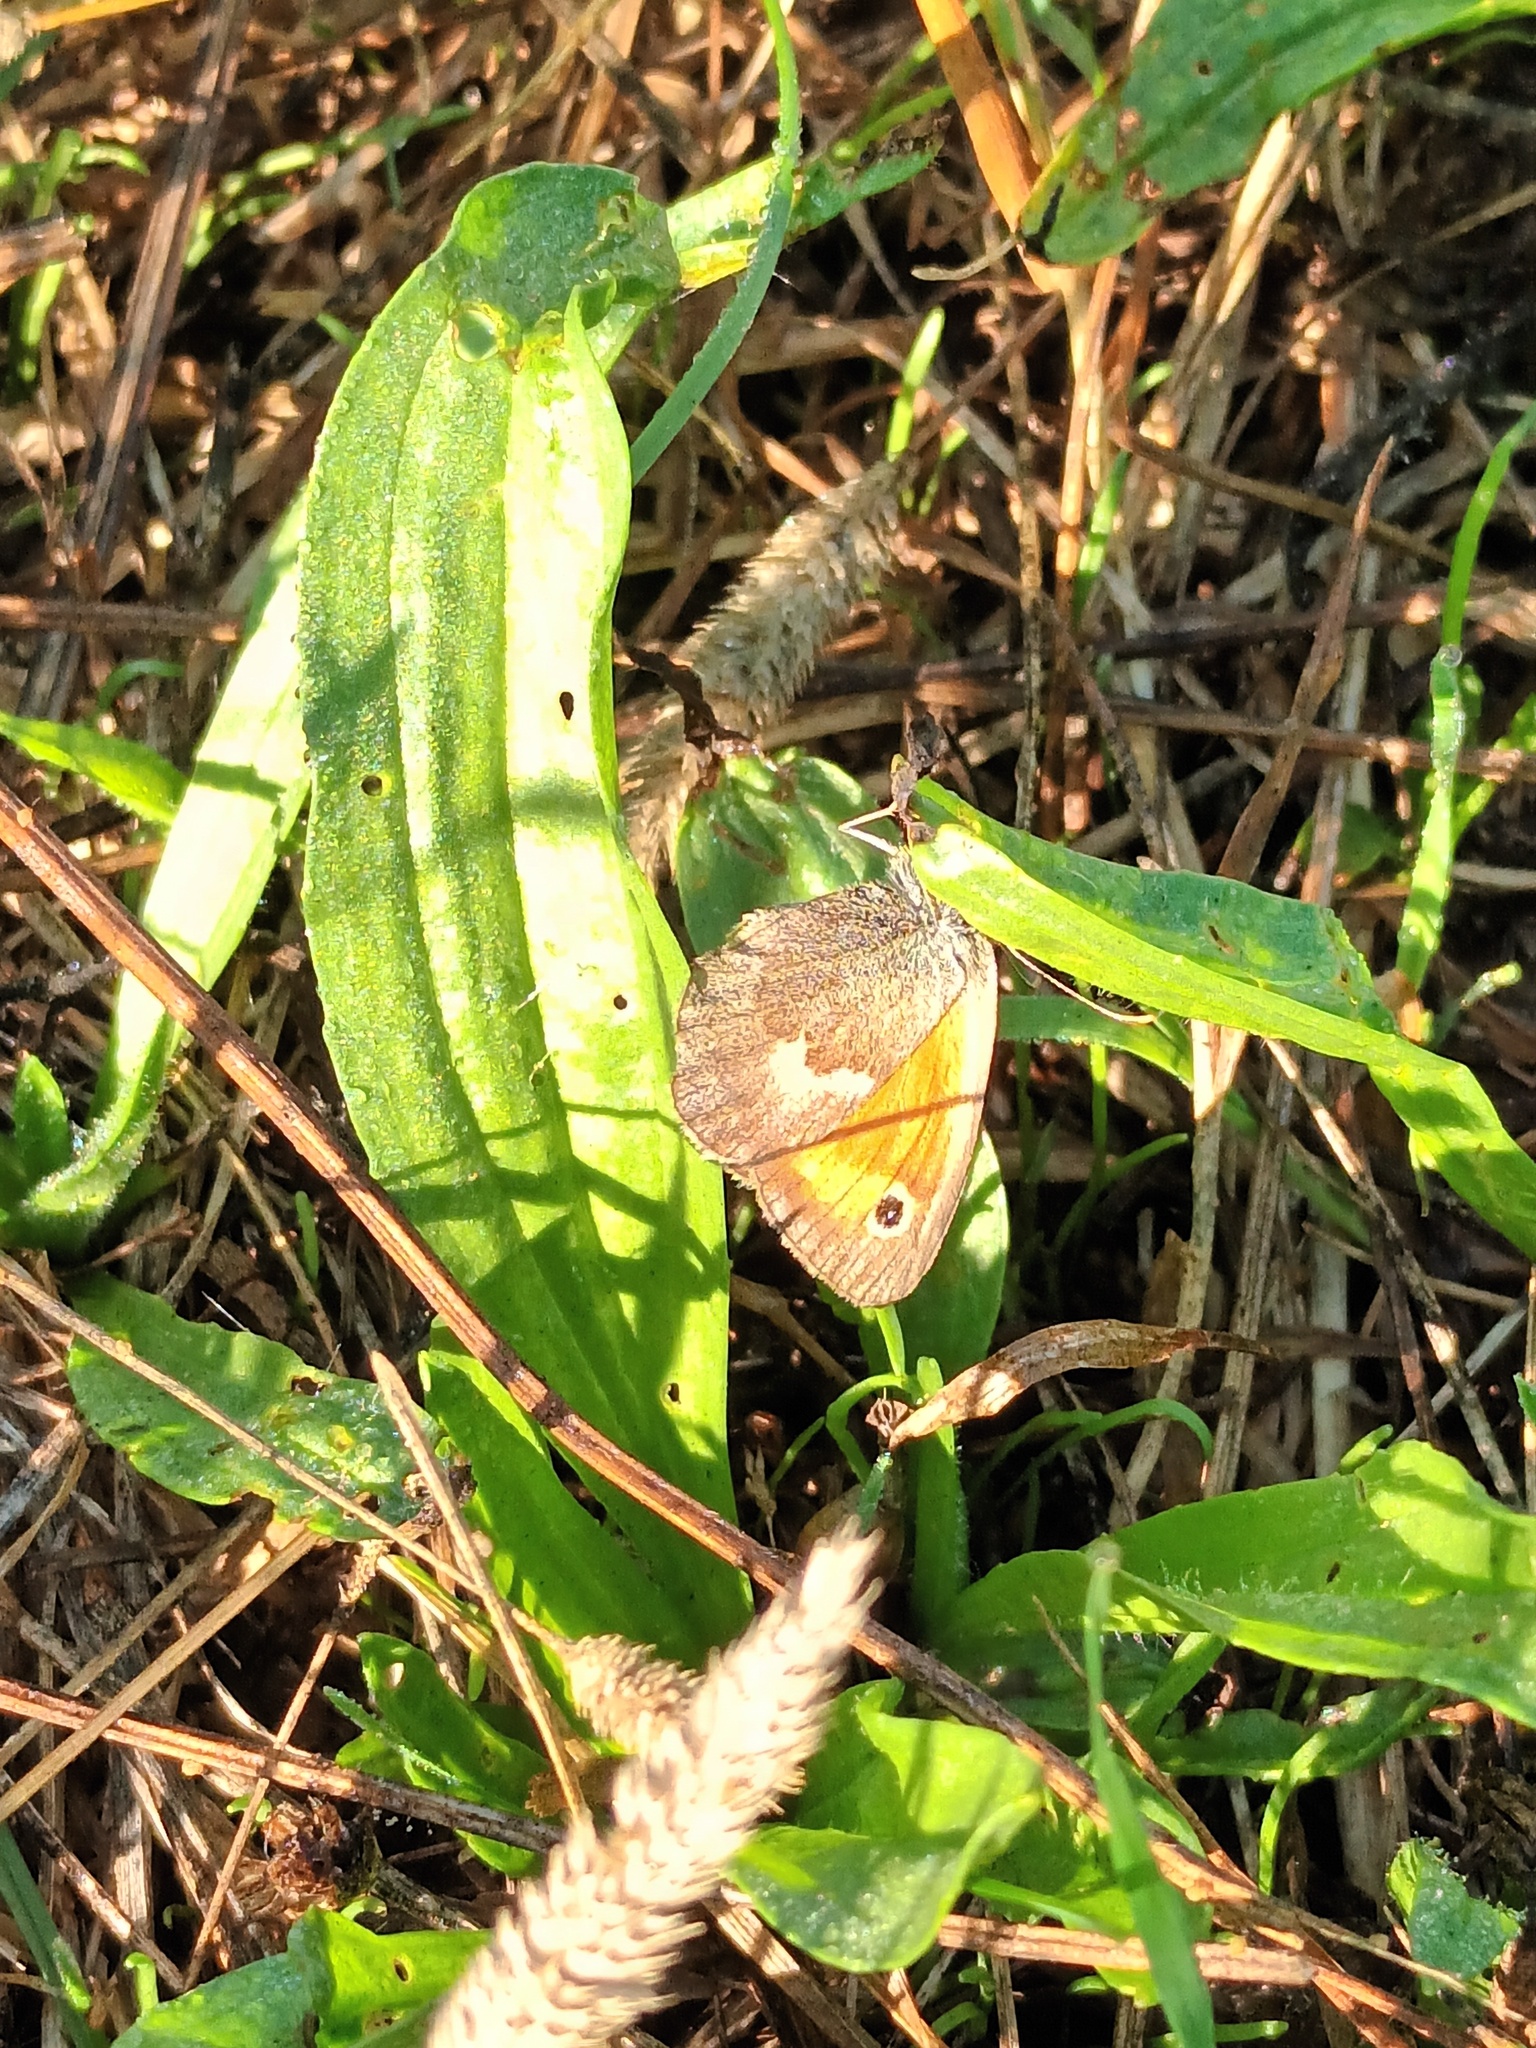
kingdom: Animalia
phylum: Arthropoda
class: Insecta
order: Lepidoptera
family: Nymphalidae
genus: Coenonympha
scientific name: Coenonympha pamphilus
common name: Small heath
